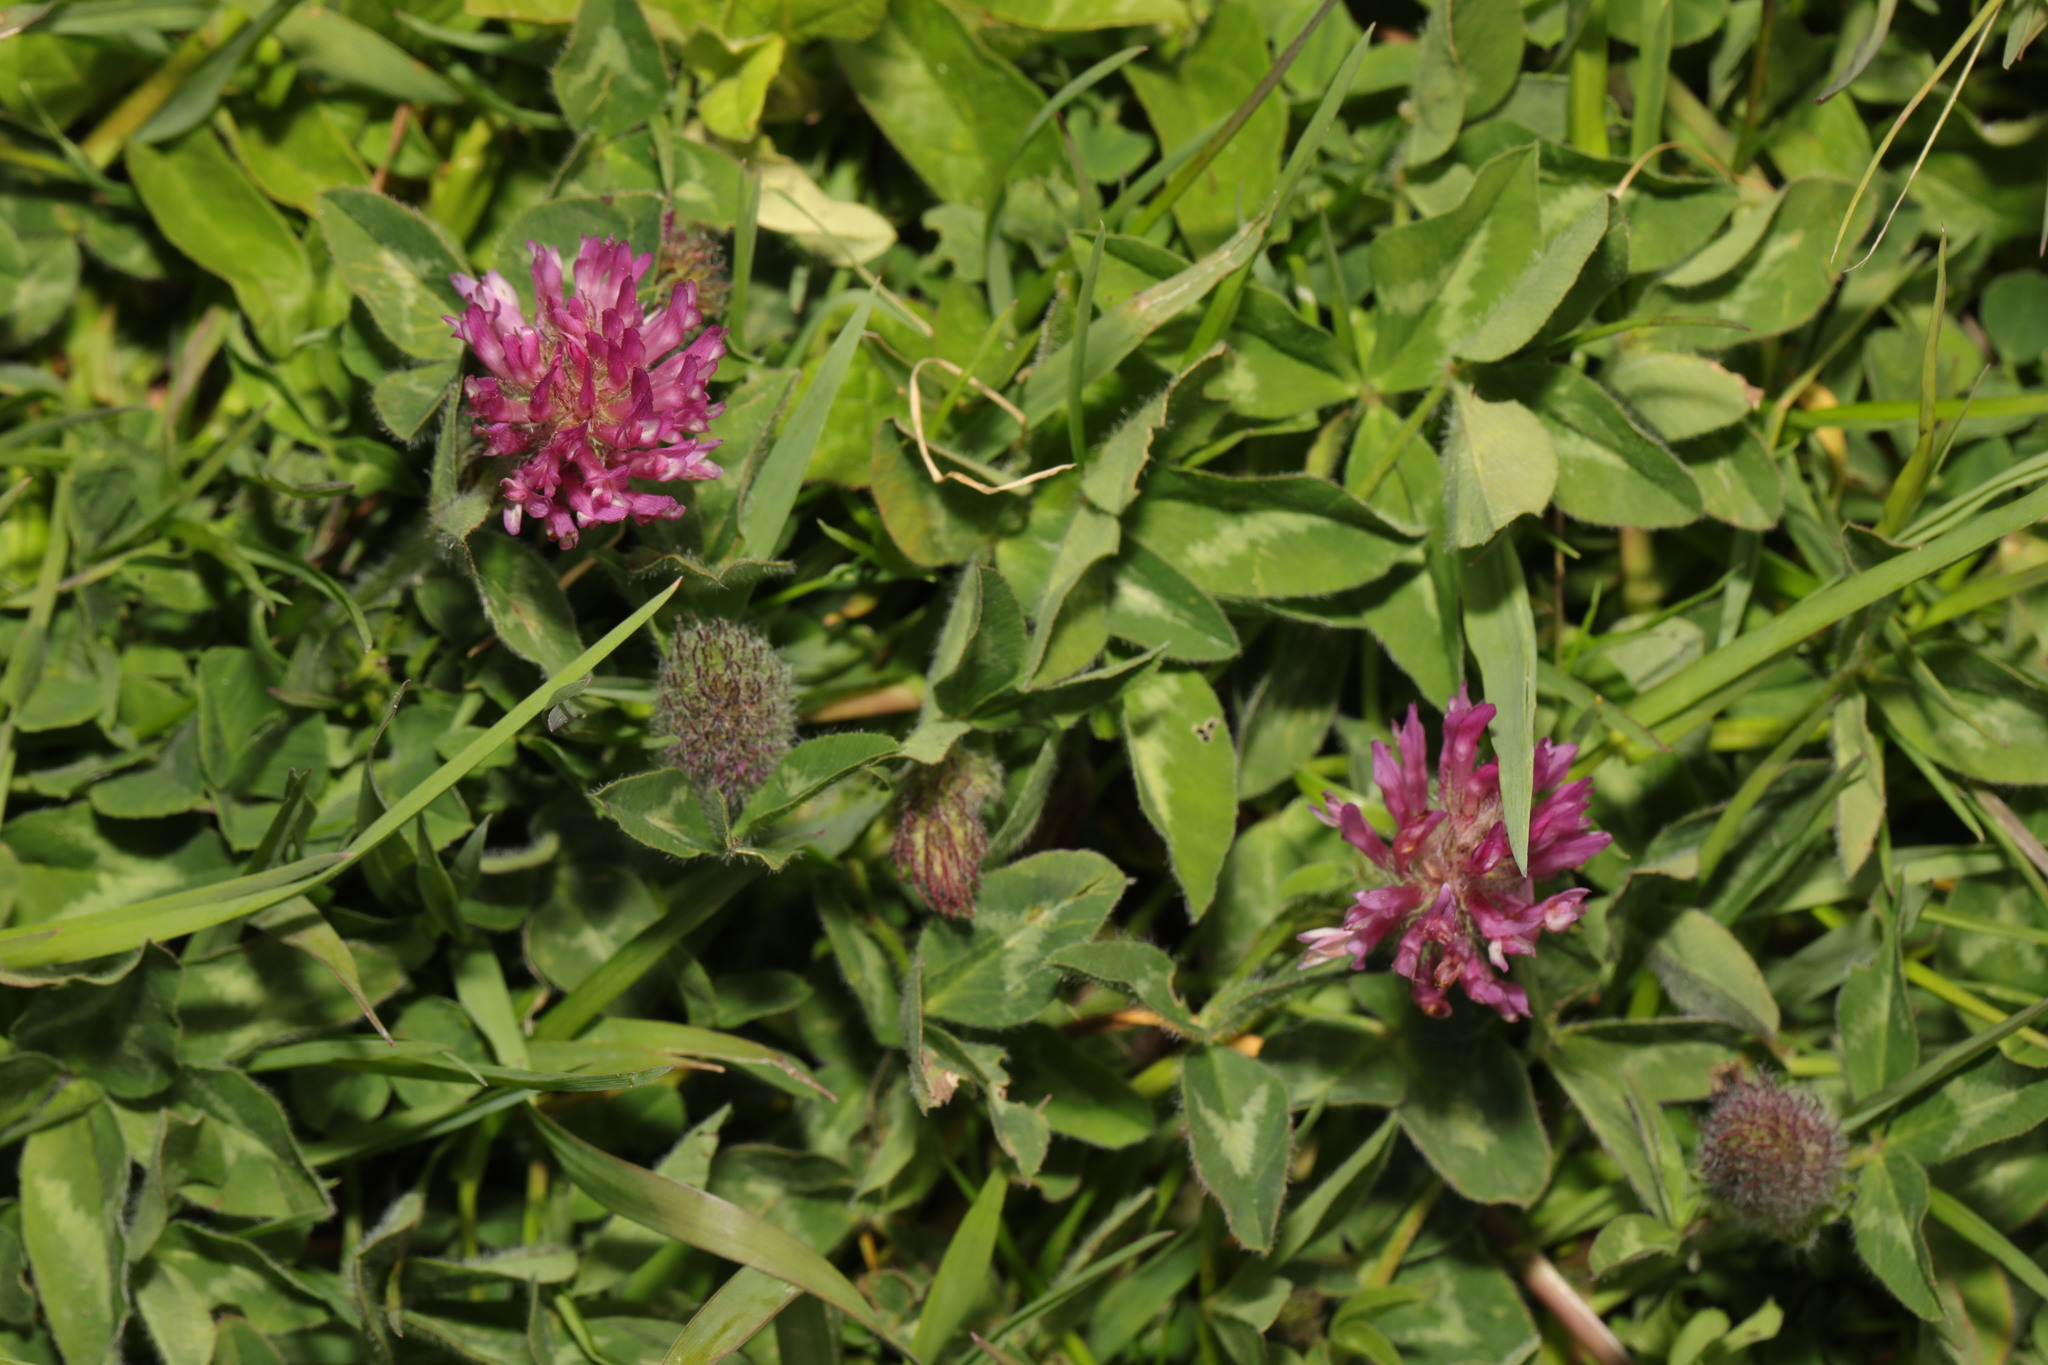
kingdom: Plantae
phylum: Tracheophyta
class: Magnoliopsida
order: Fabales
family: Fabaceae
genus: Trifolium
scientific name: Trifolium pratense
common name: Red clover
